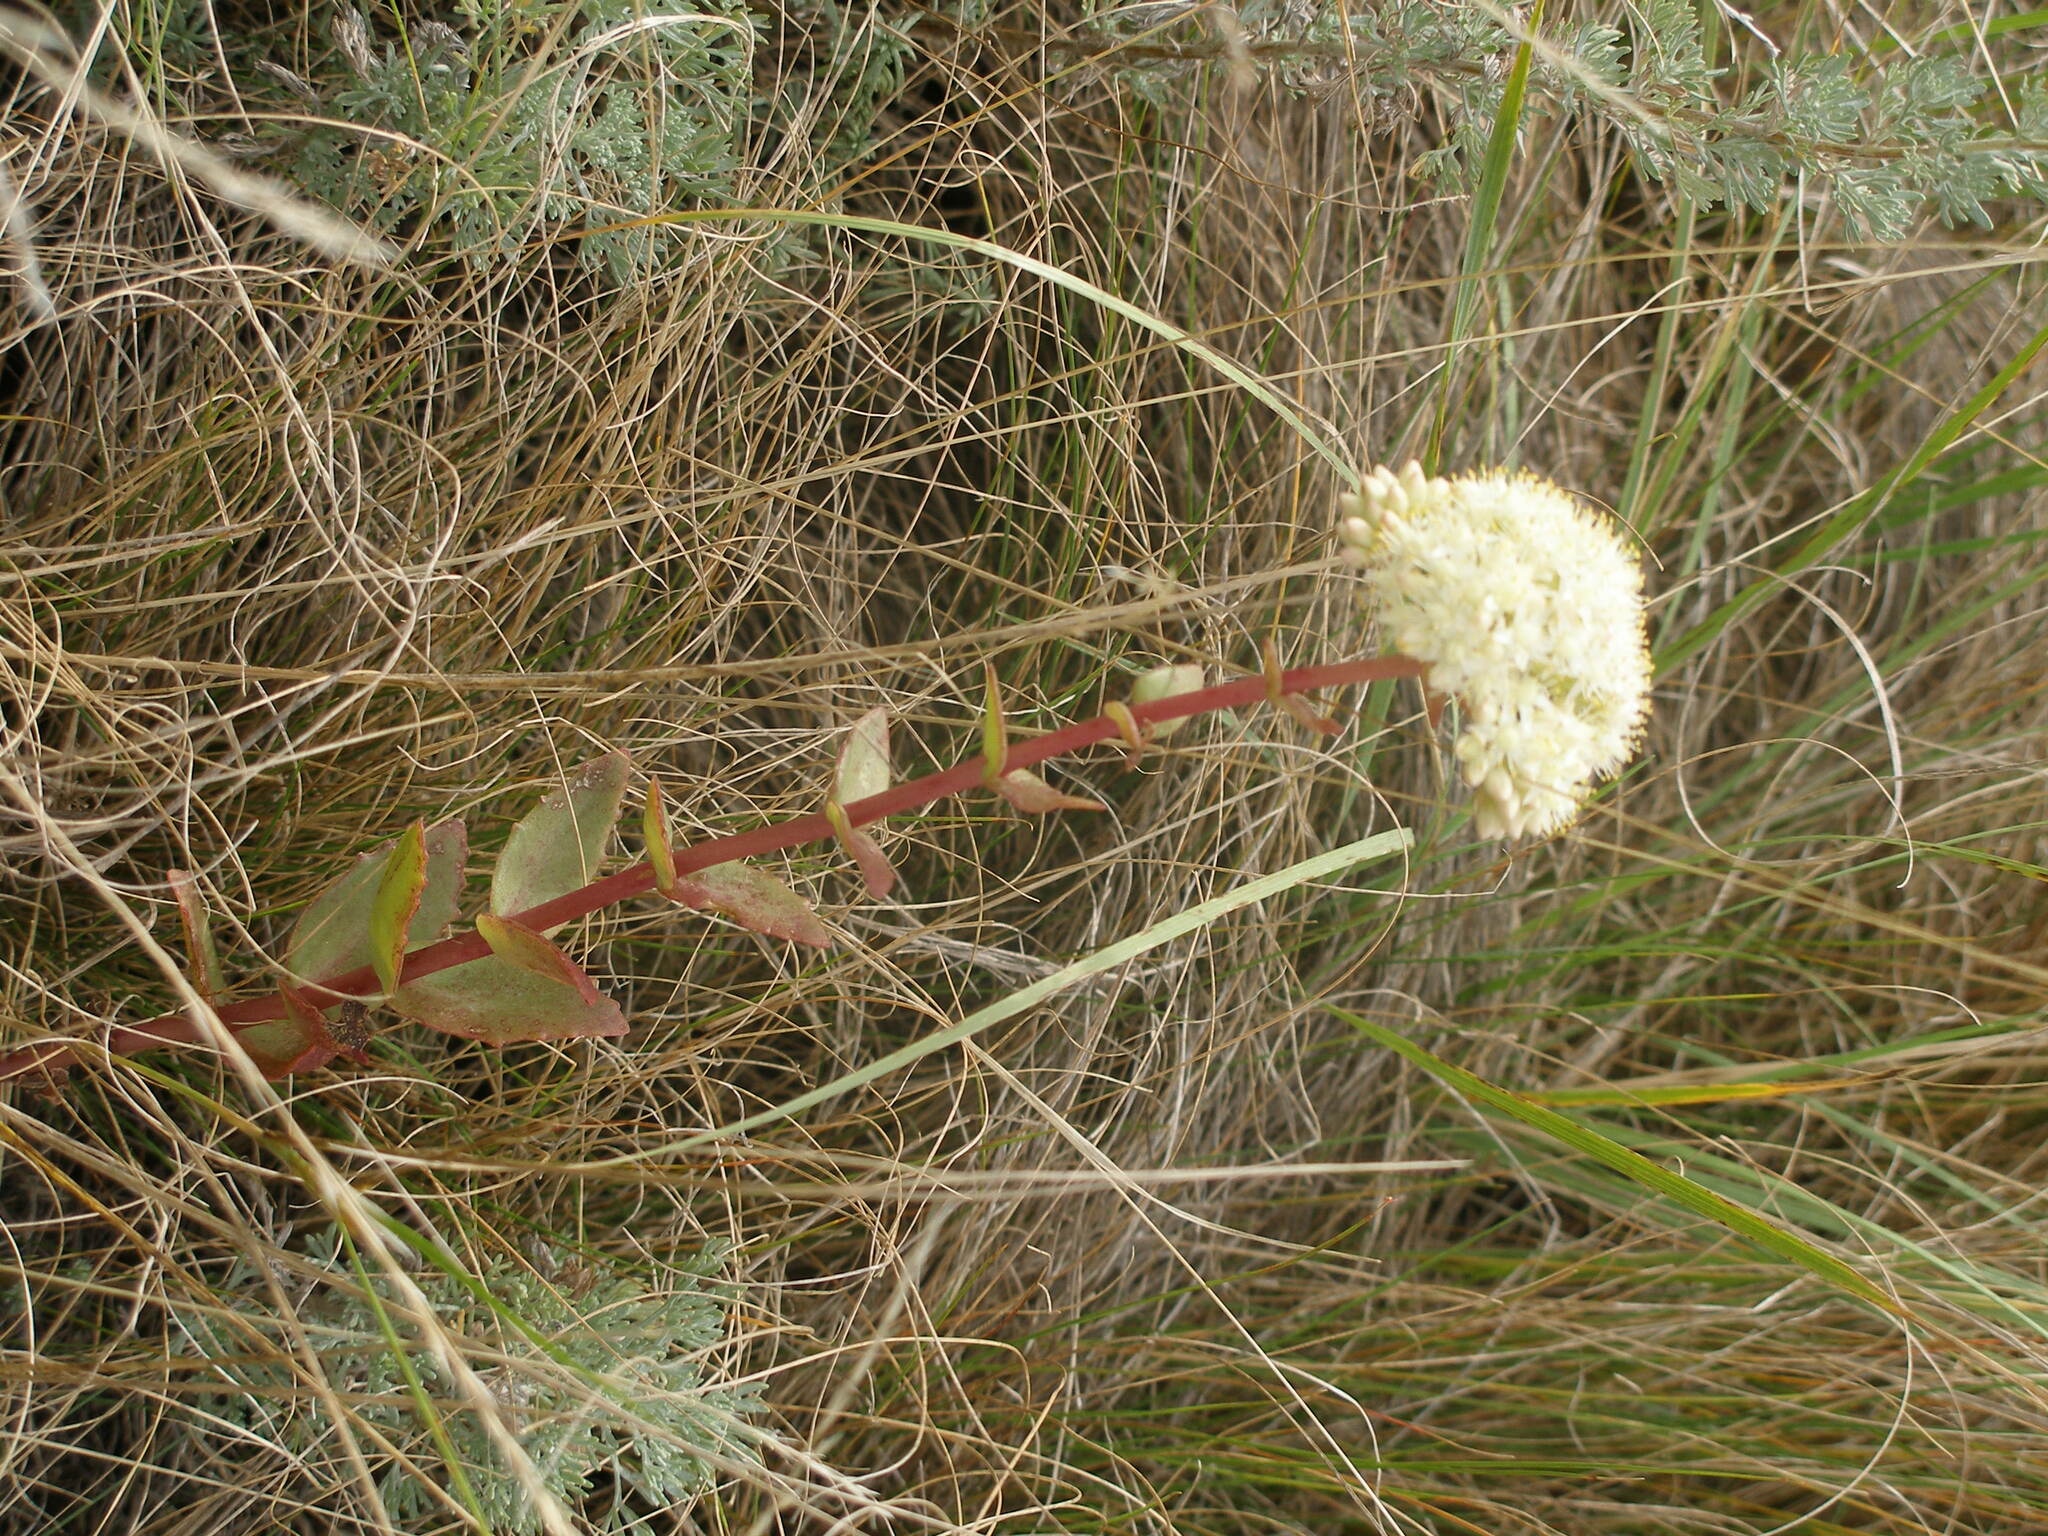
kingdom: Plantae
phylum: Tracheophyta
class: Magnoliopsida
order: Saxifragales
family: Crassulaceae
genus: Hylotelephium
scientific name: Hylotelephium maximum
